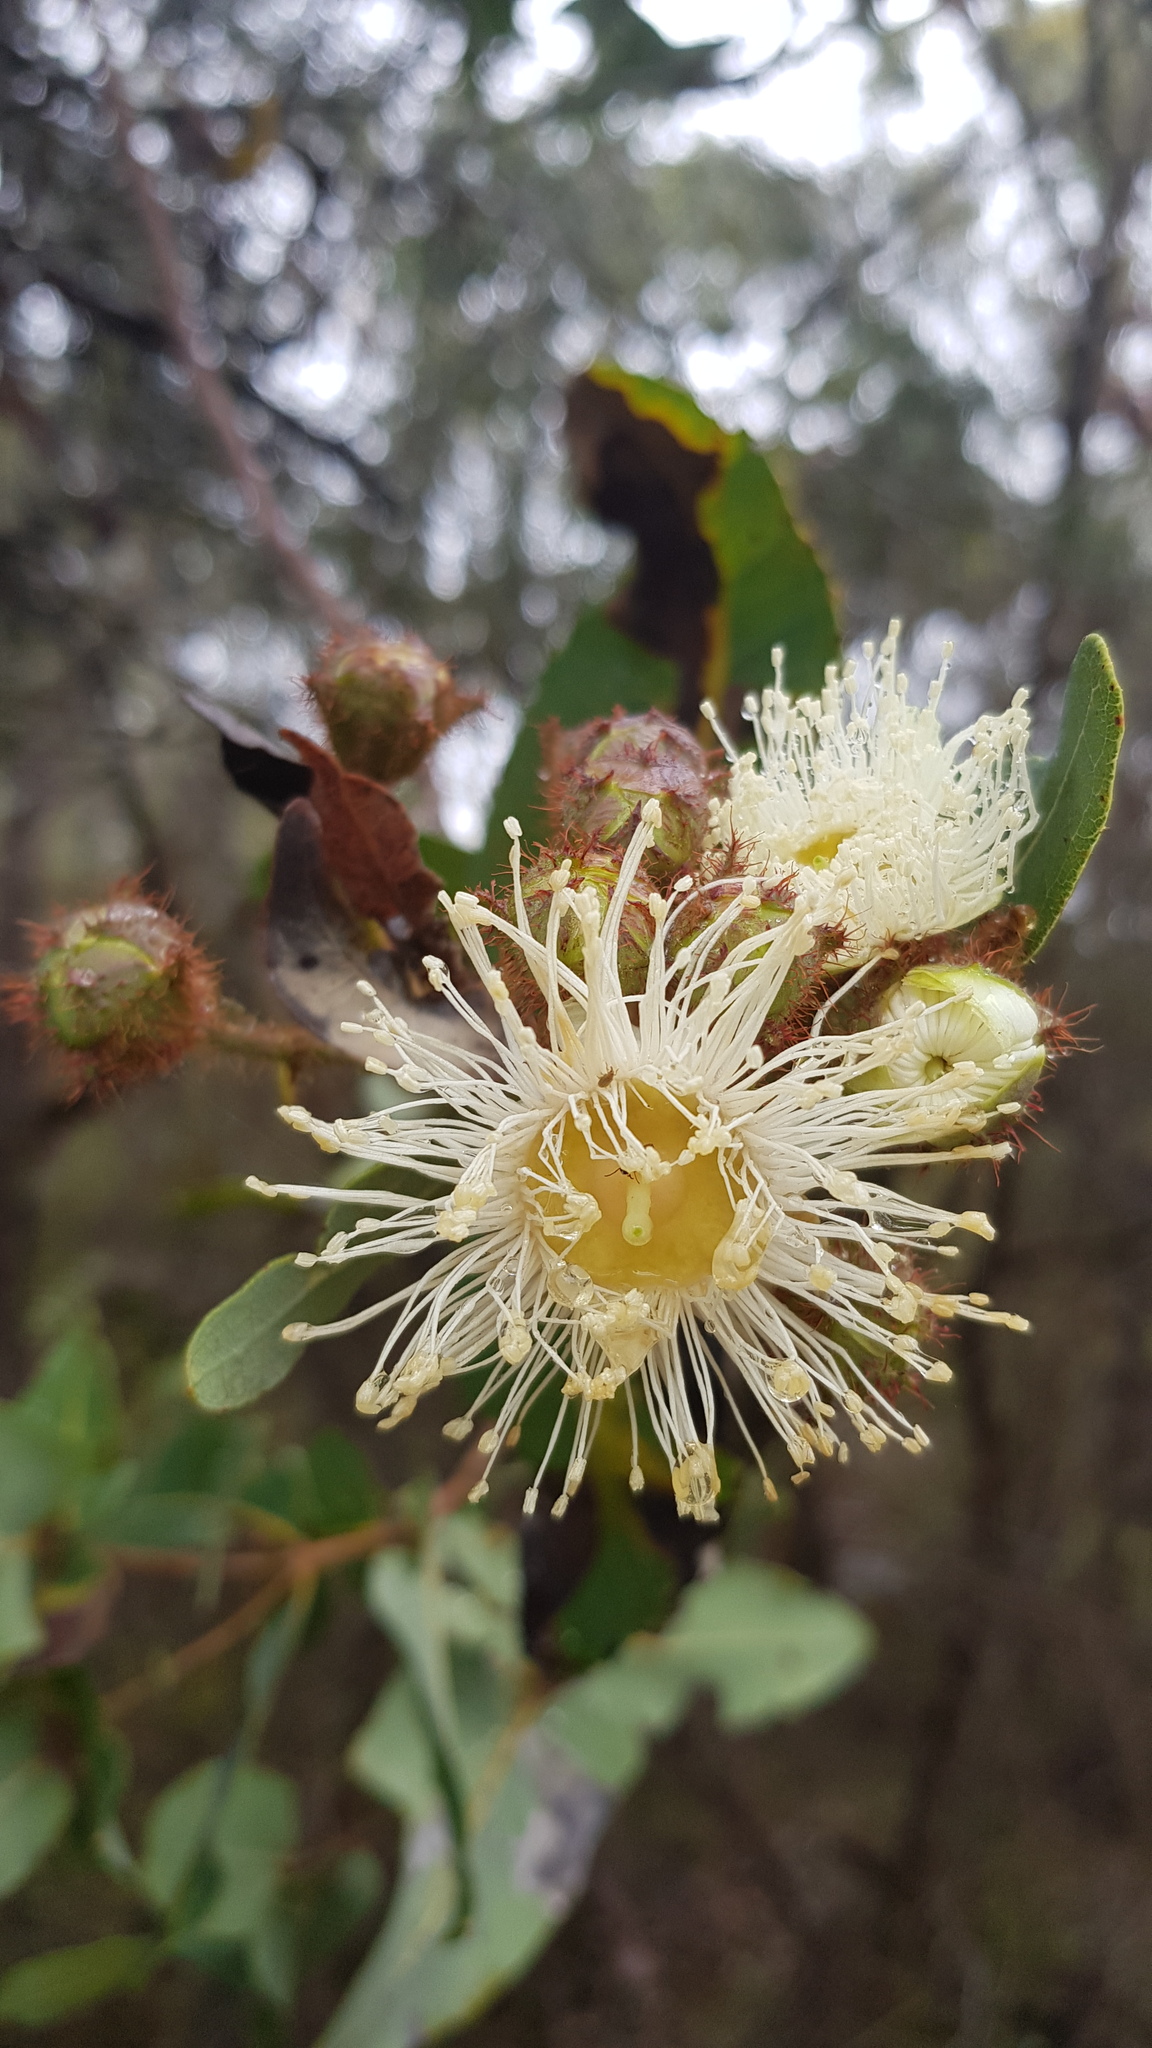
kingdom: Plantae
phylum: Tracheophyta
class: Magnoliopsida
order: Myrtales
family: Myrtaceae
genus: Angophora
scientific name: Angophora hispida
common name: Dwarf-apple
